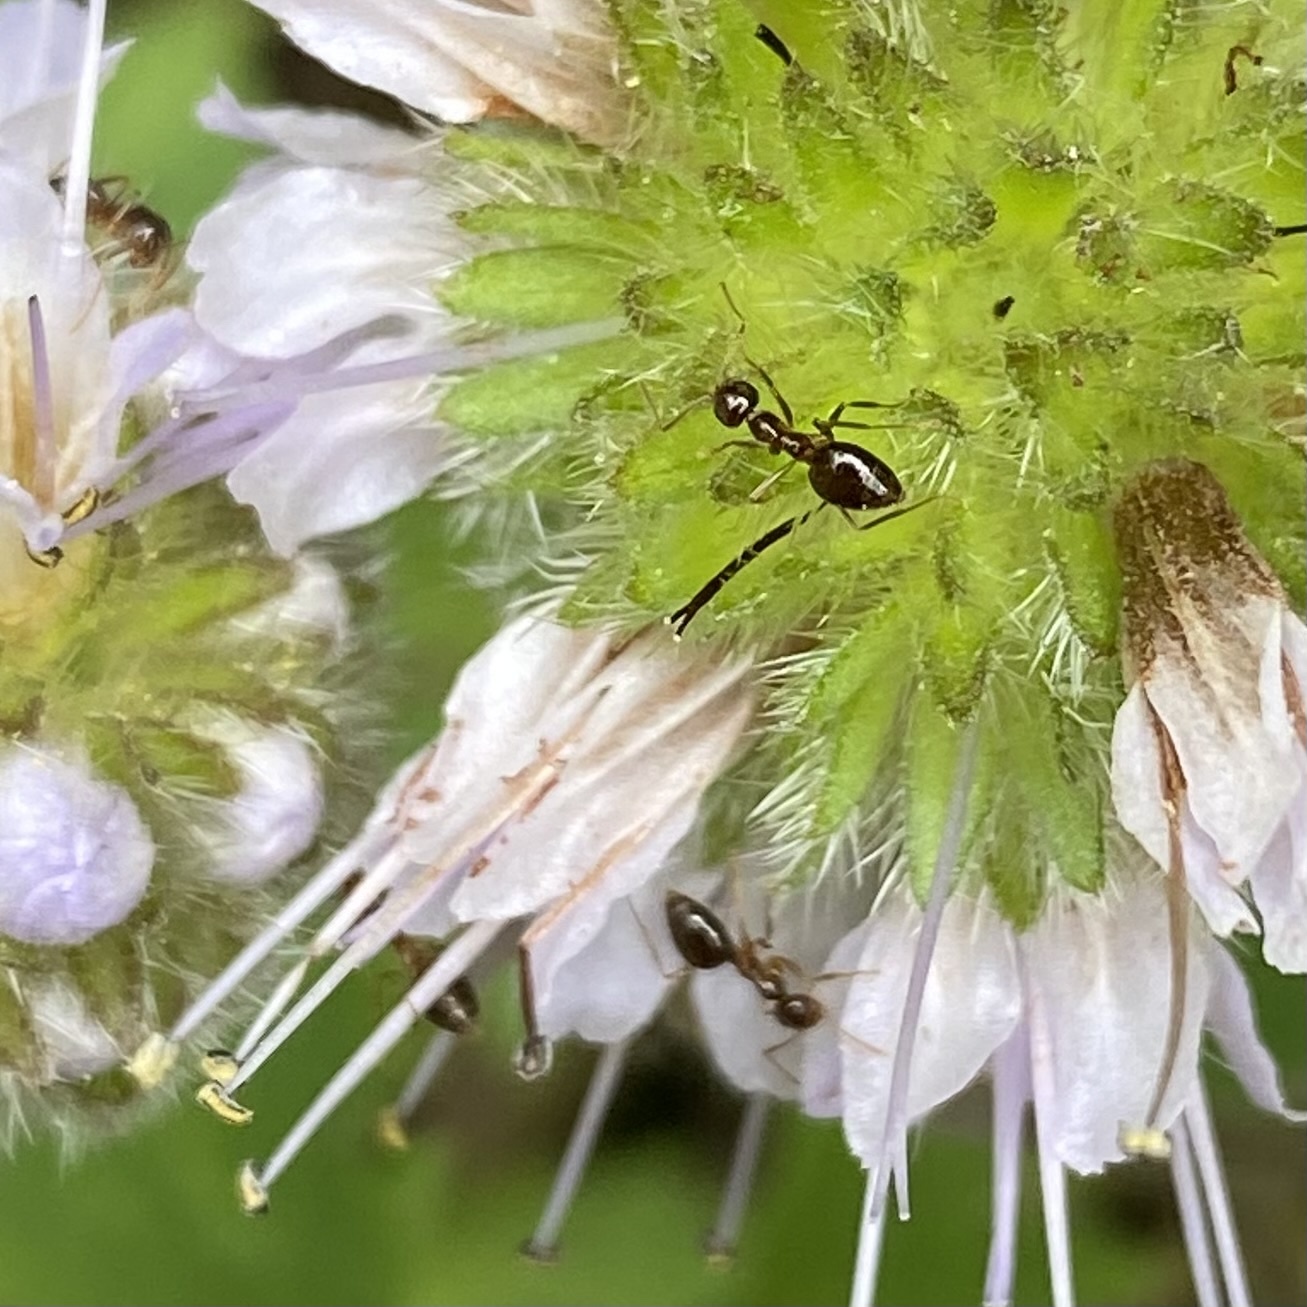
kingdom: Animalia
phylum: Arthropoda
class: Insecta
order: Hymenoptera
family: Formicidae
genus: Prenolepis
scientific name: Prenolepis imparis
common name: Small honey ant
